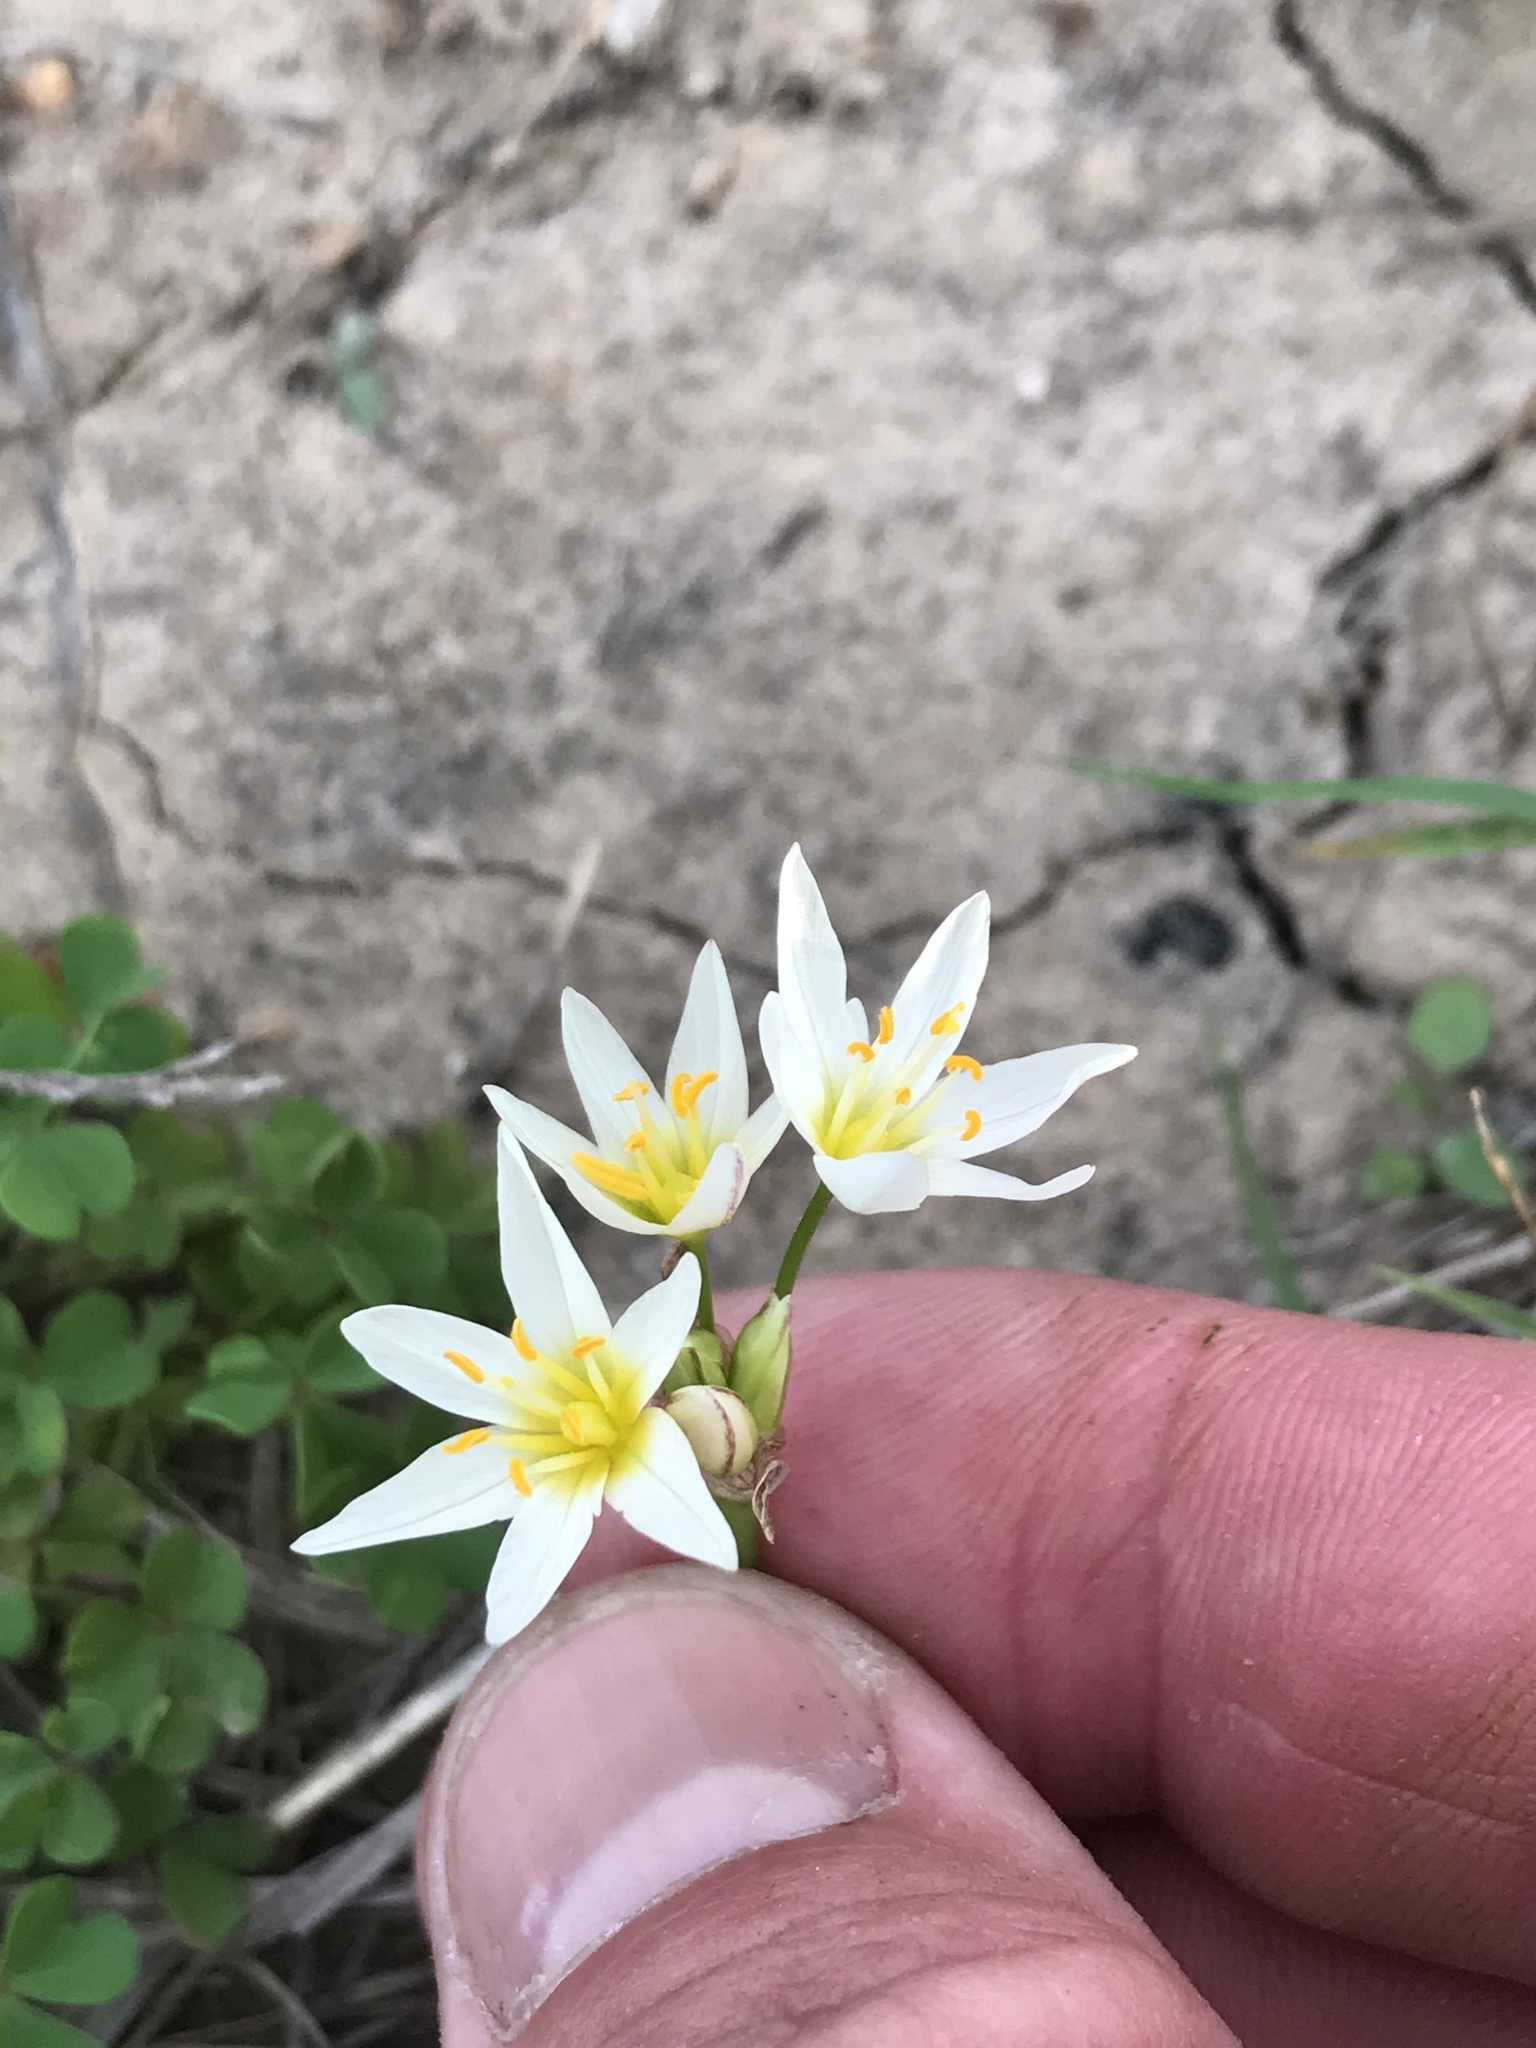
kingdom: Plantae
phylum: Tracheophyta
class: Liliopsida
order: Asparagales
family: Amaryllidaceae
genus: Nothoscordum
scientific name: Nothoscordum bivalve
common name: Crow-poison
